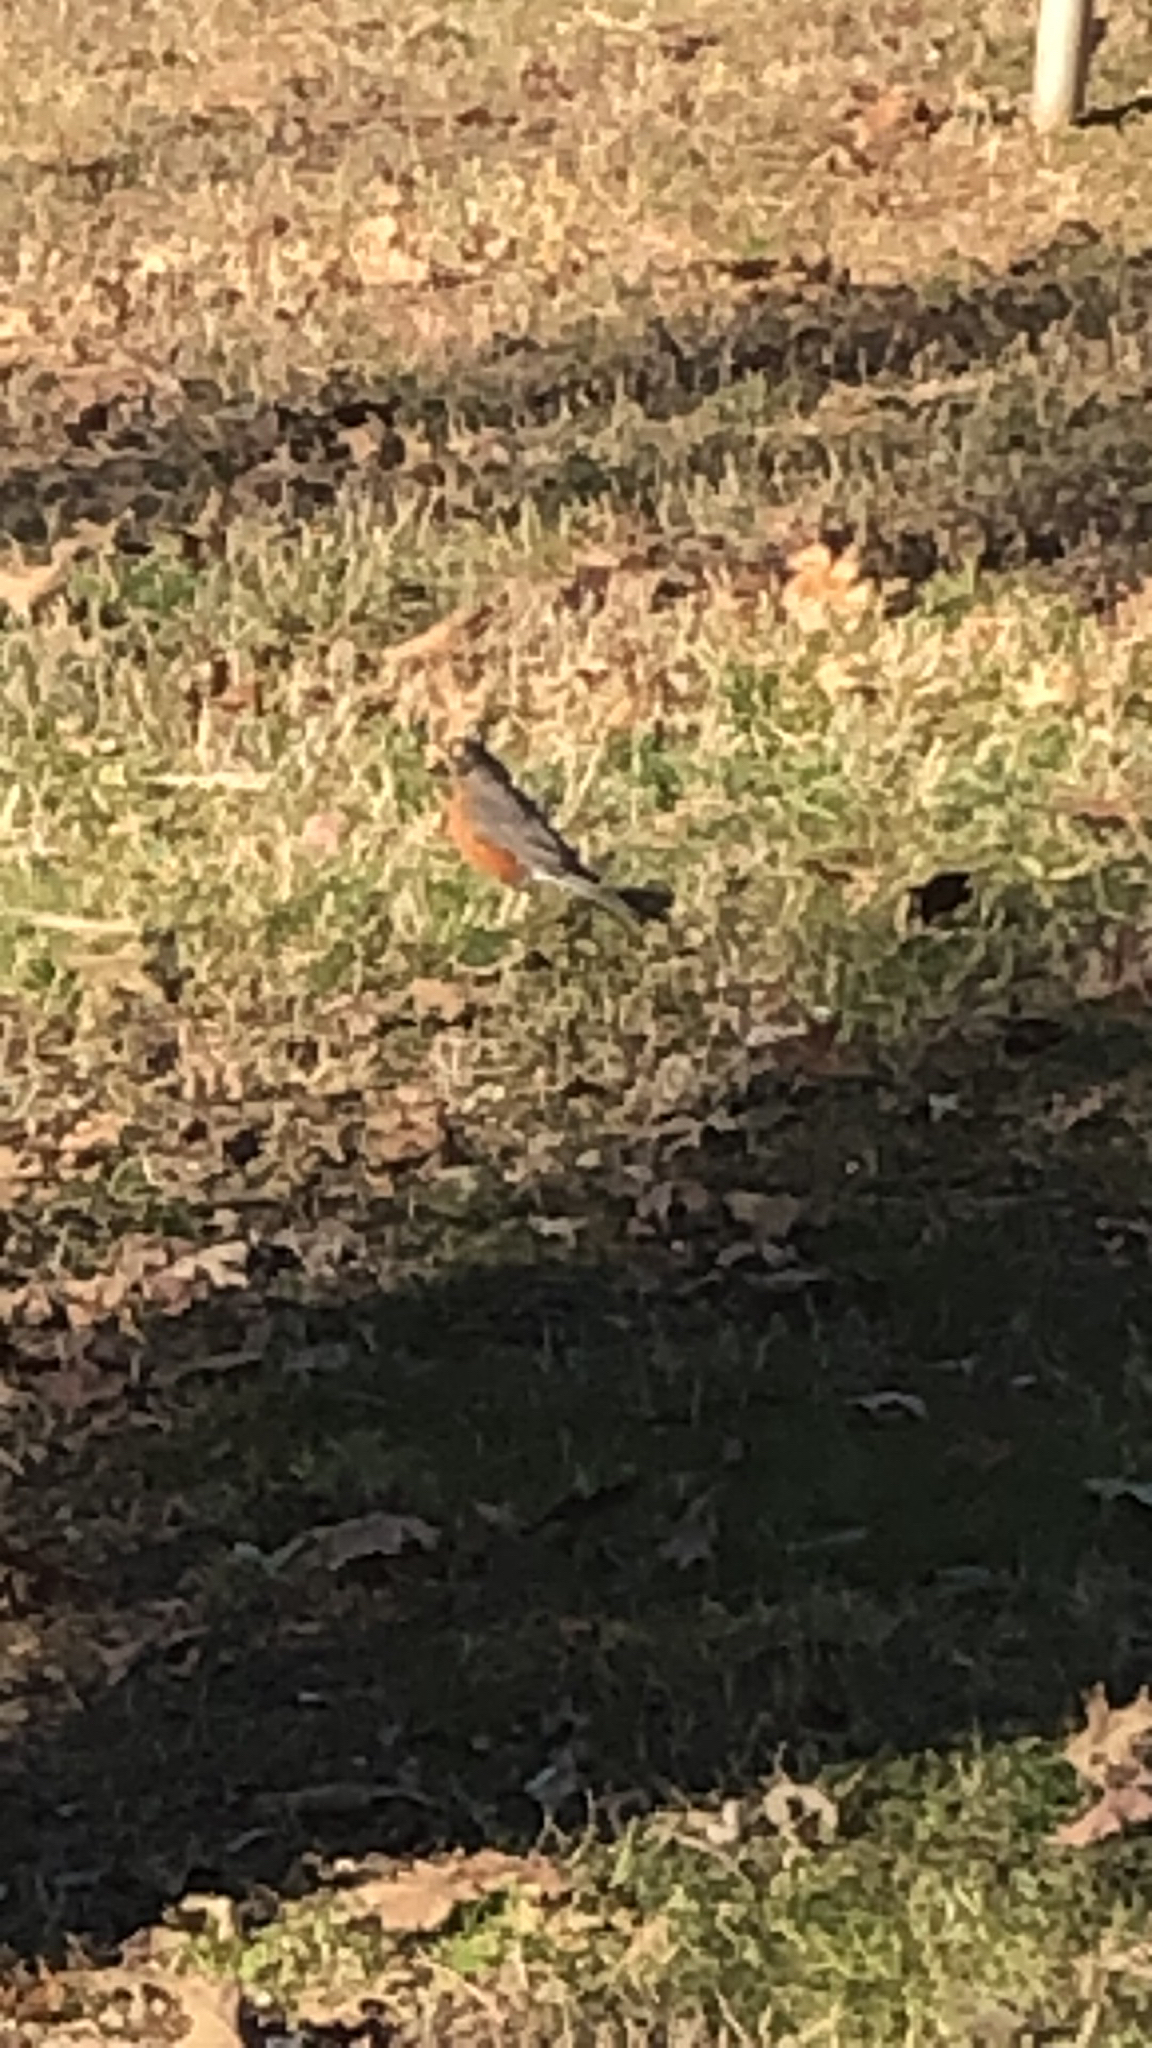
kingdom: Animalia
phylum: Chordata
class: Aves
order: Passeriformes
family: Turdidae
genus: Turdus
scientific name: Turdus migratorius
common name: American robin
